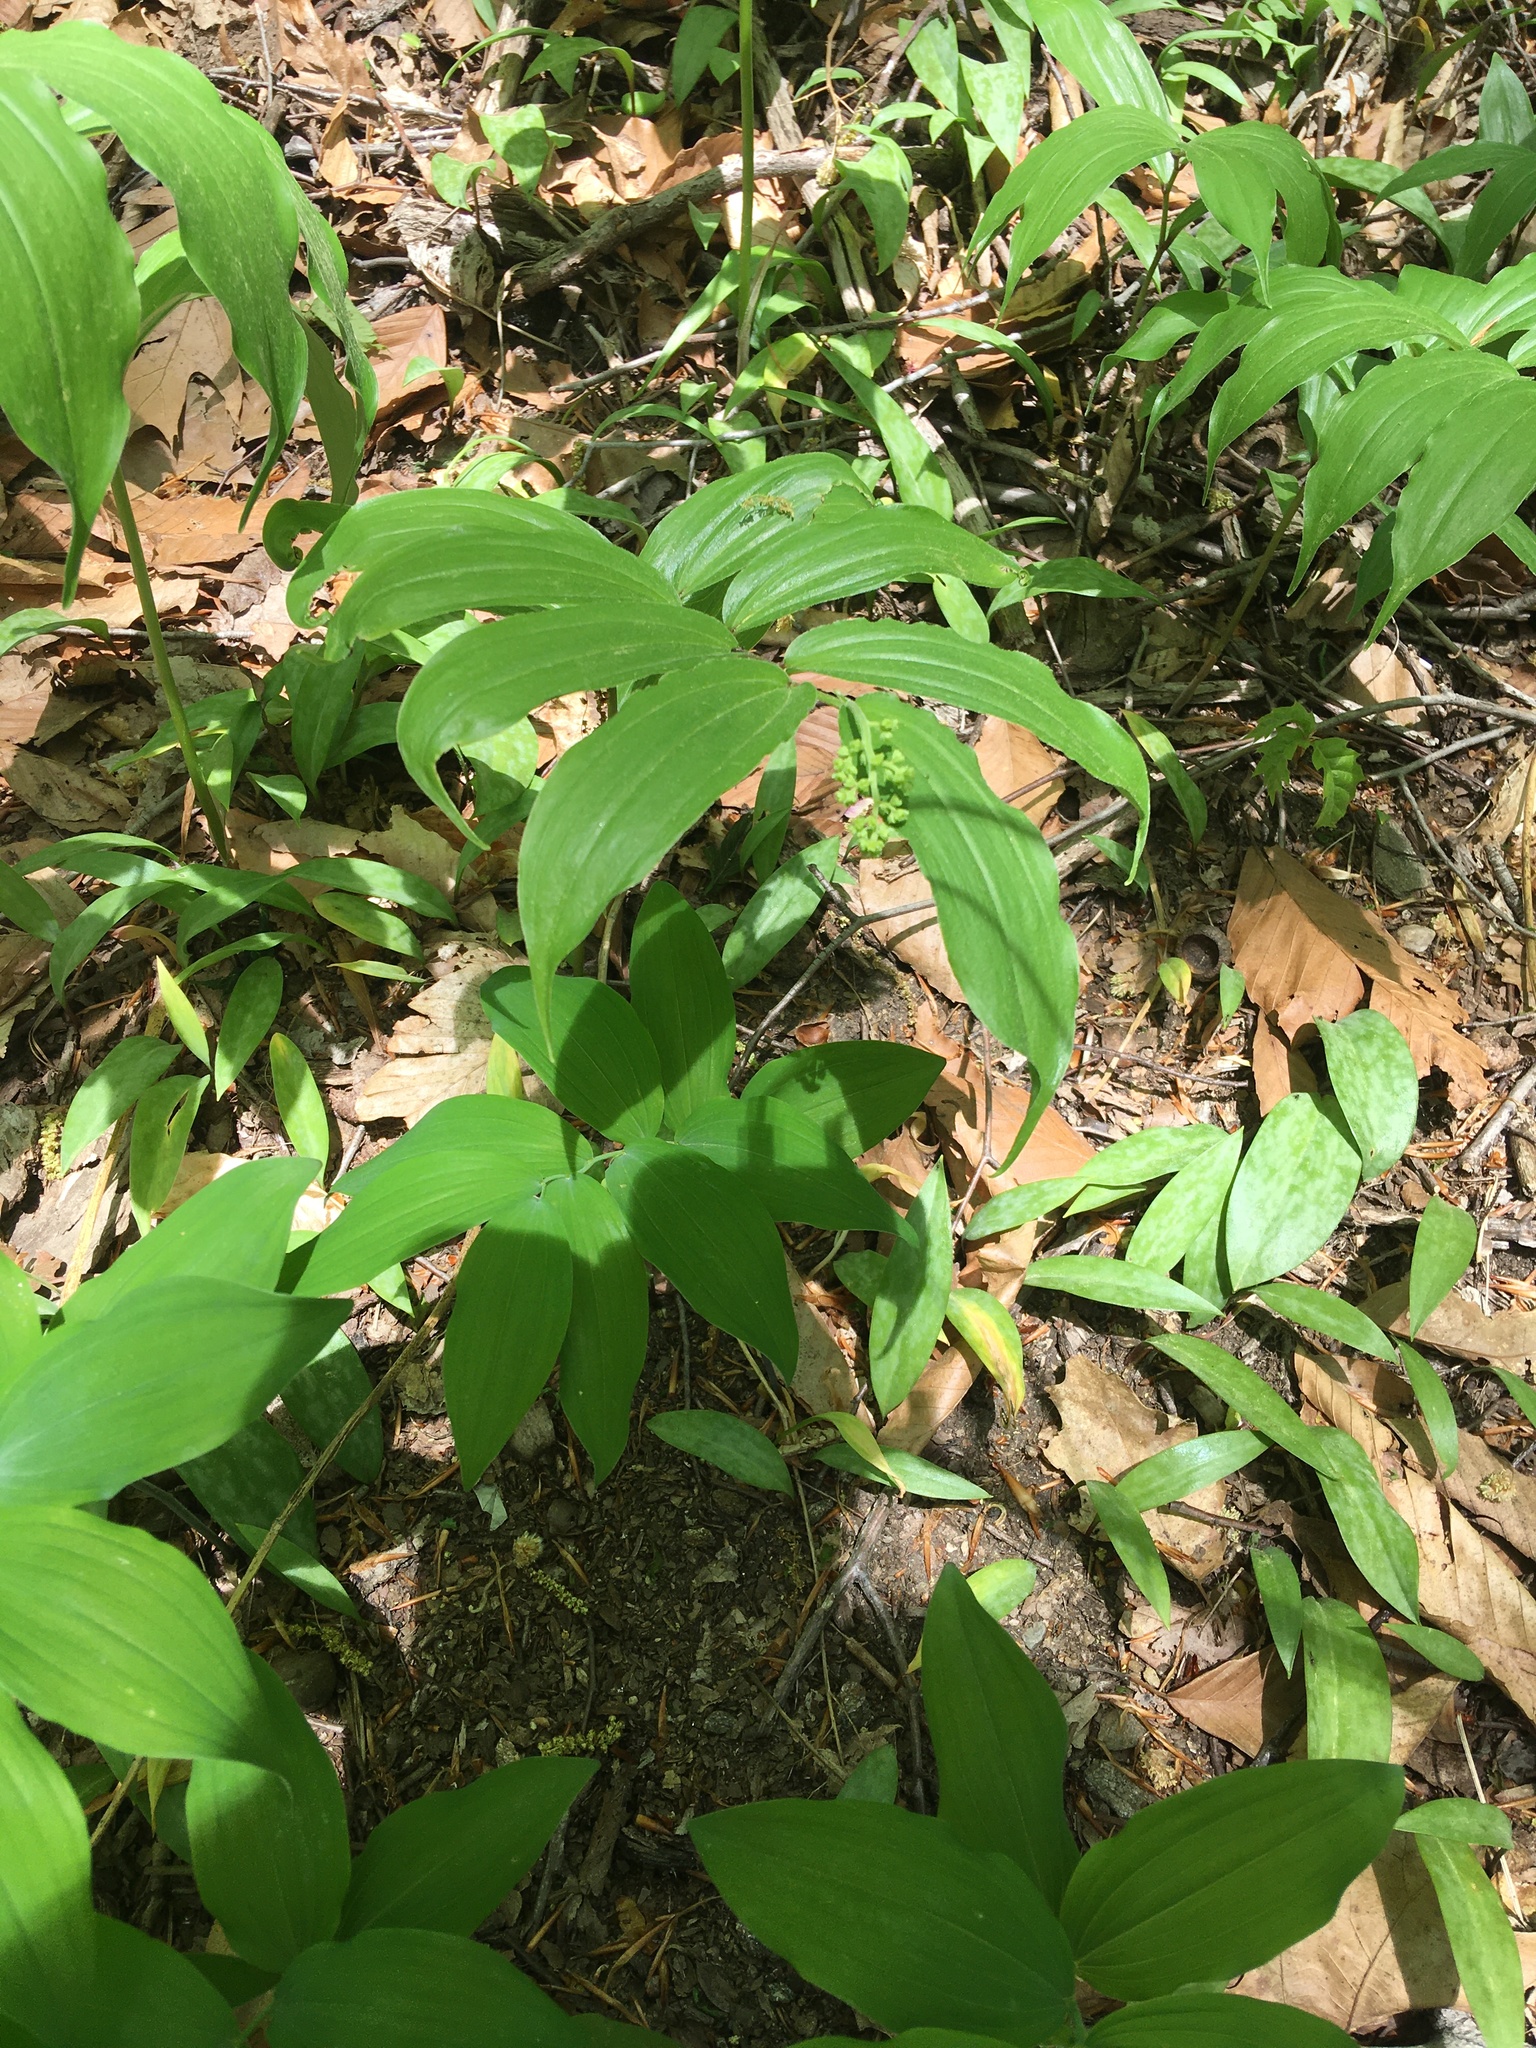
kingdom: Plantae
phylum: Tracheophyta
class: Liliopsida
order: Asparagales
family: Asparagaceae
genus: Maianthemum
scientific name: Maianthemum racemosum
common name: False spikenard
